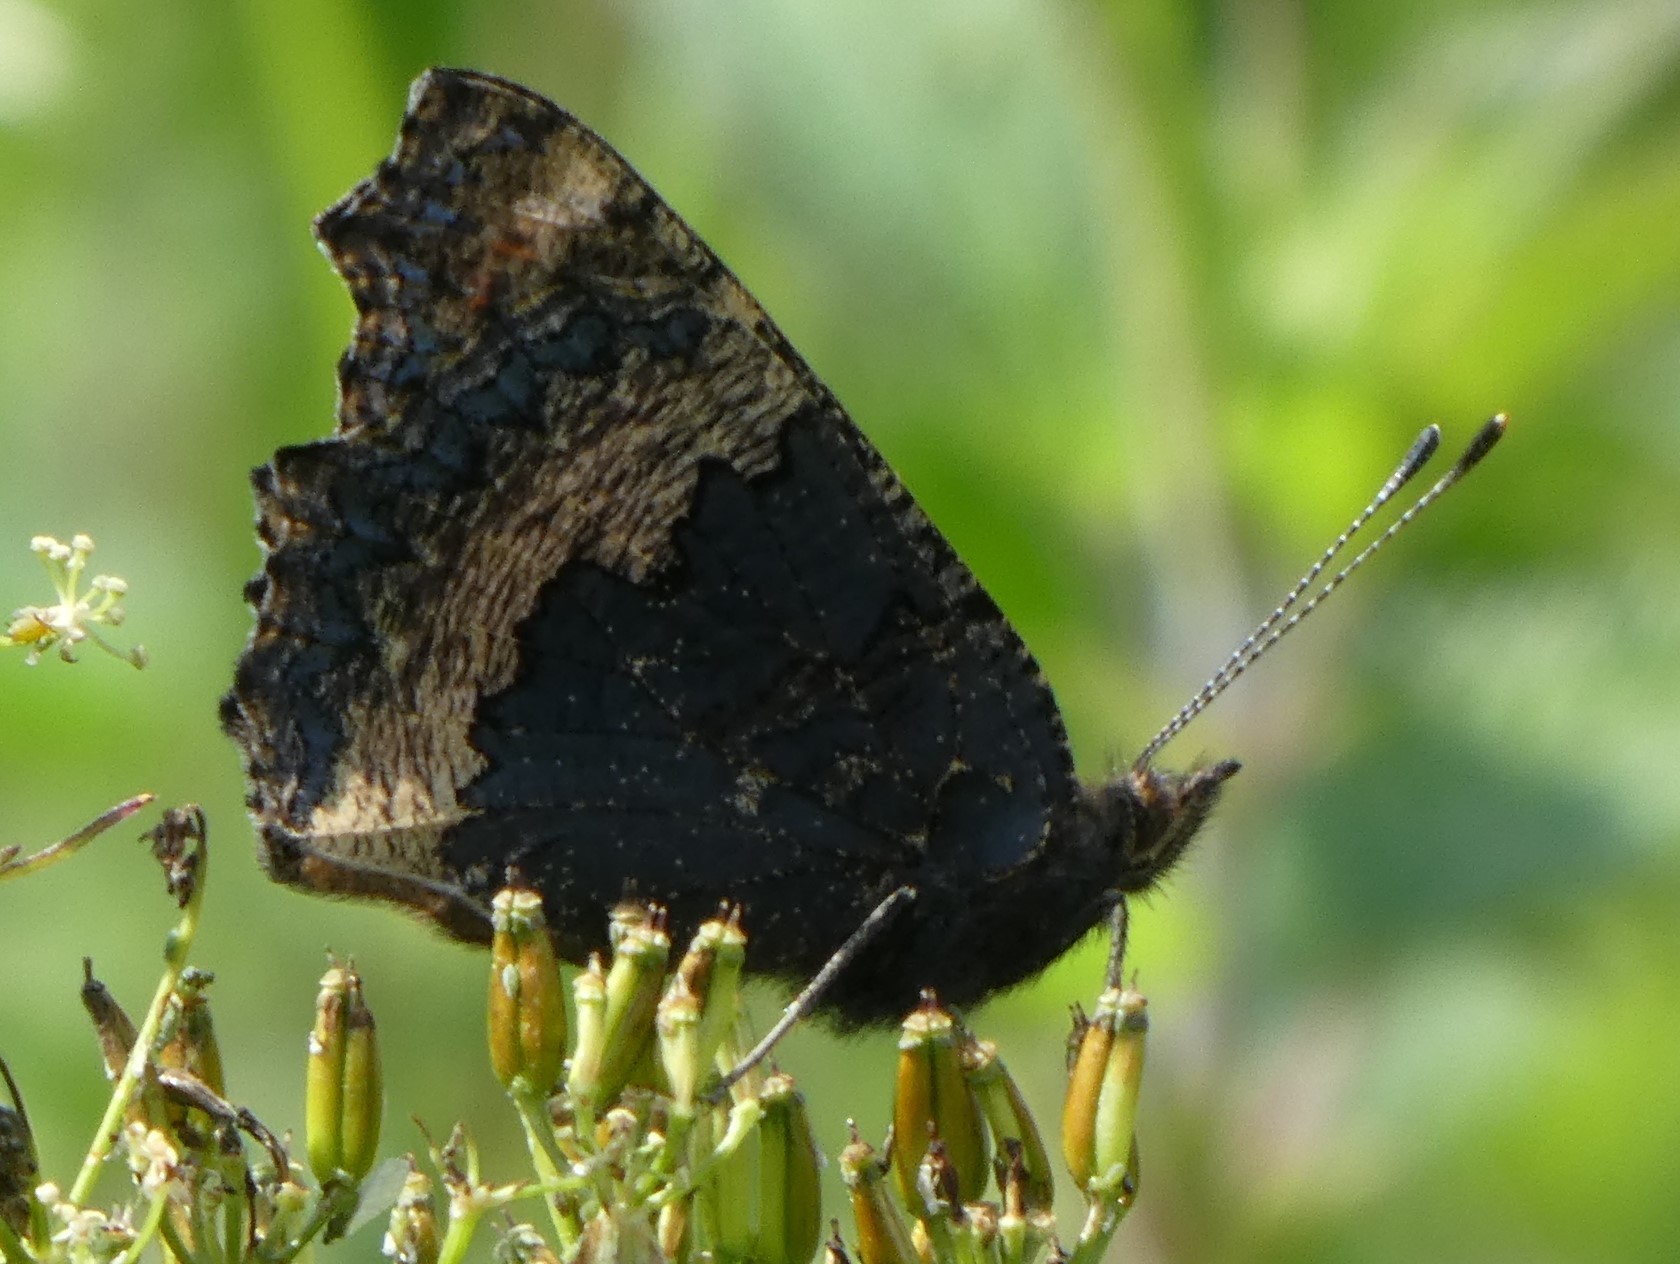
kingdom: Animalia
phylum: Arthropoda
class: Insecta
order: Lepidoptera
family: Nymphalidae
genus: Aglais
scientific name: Aglais urticae
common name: Small tortoiseshell
